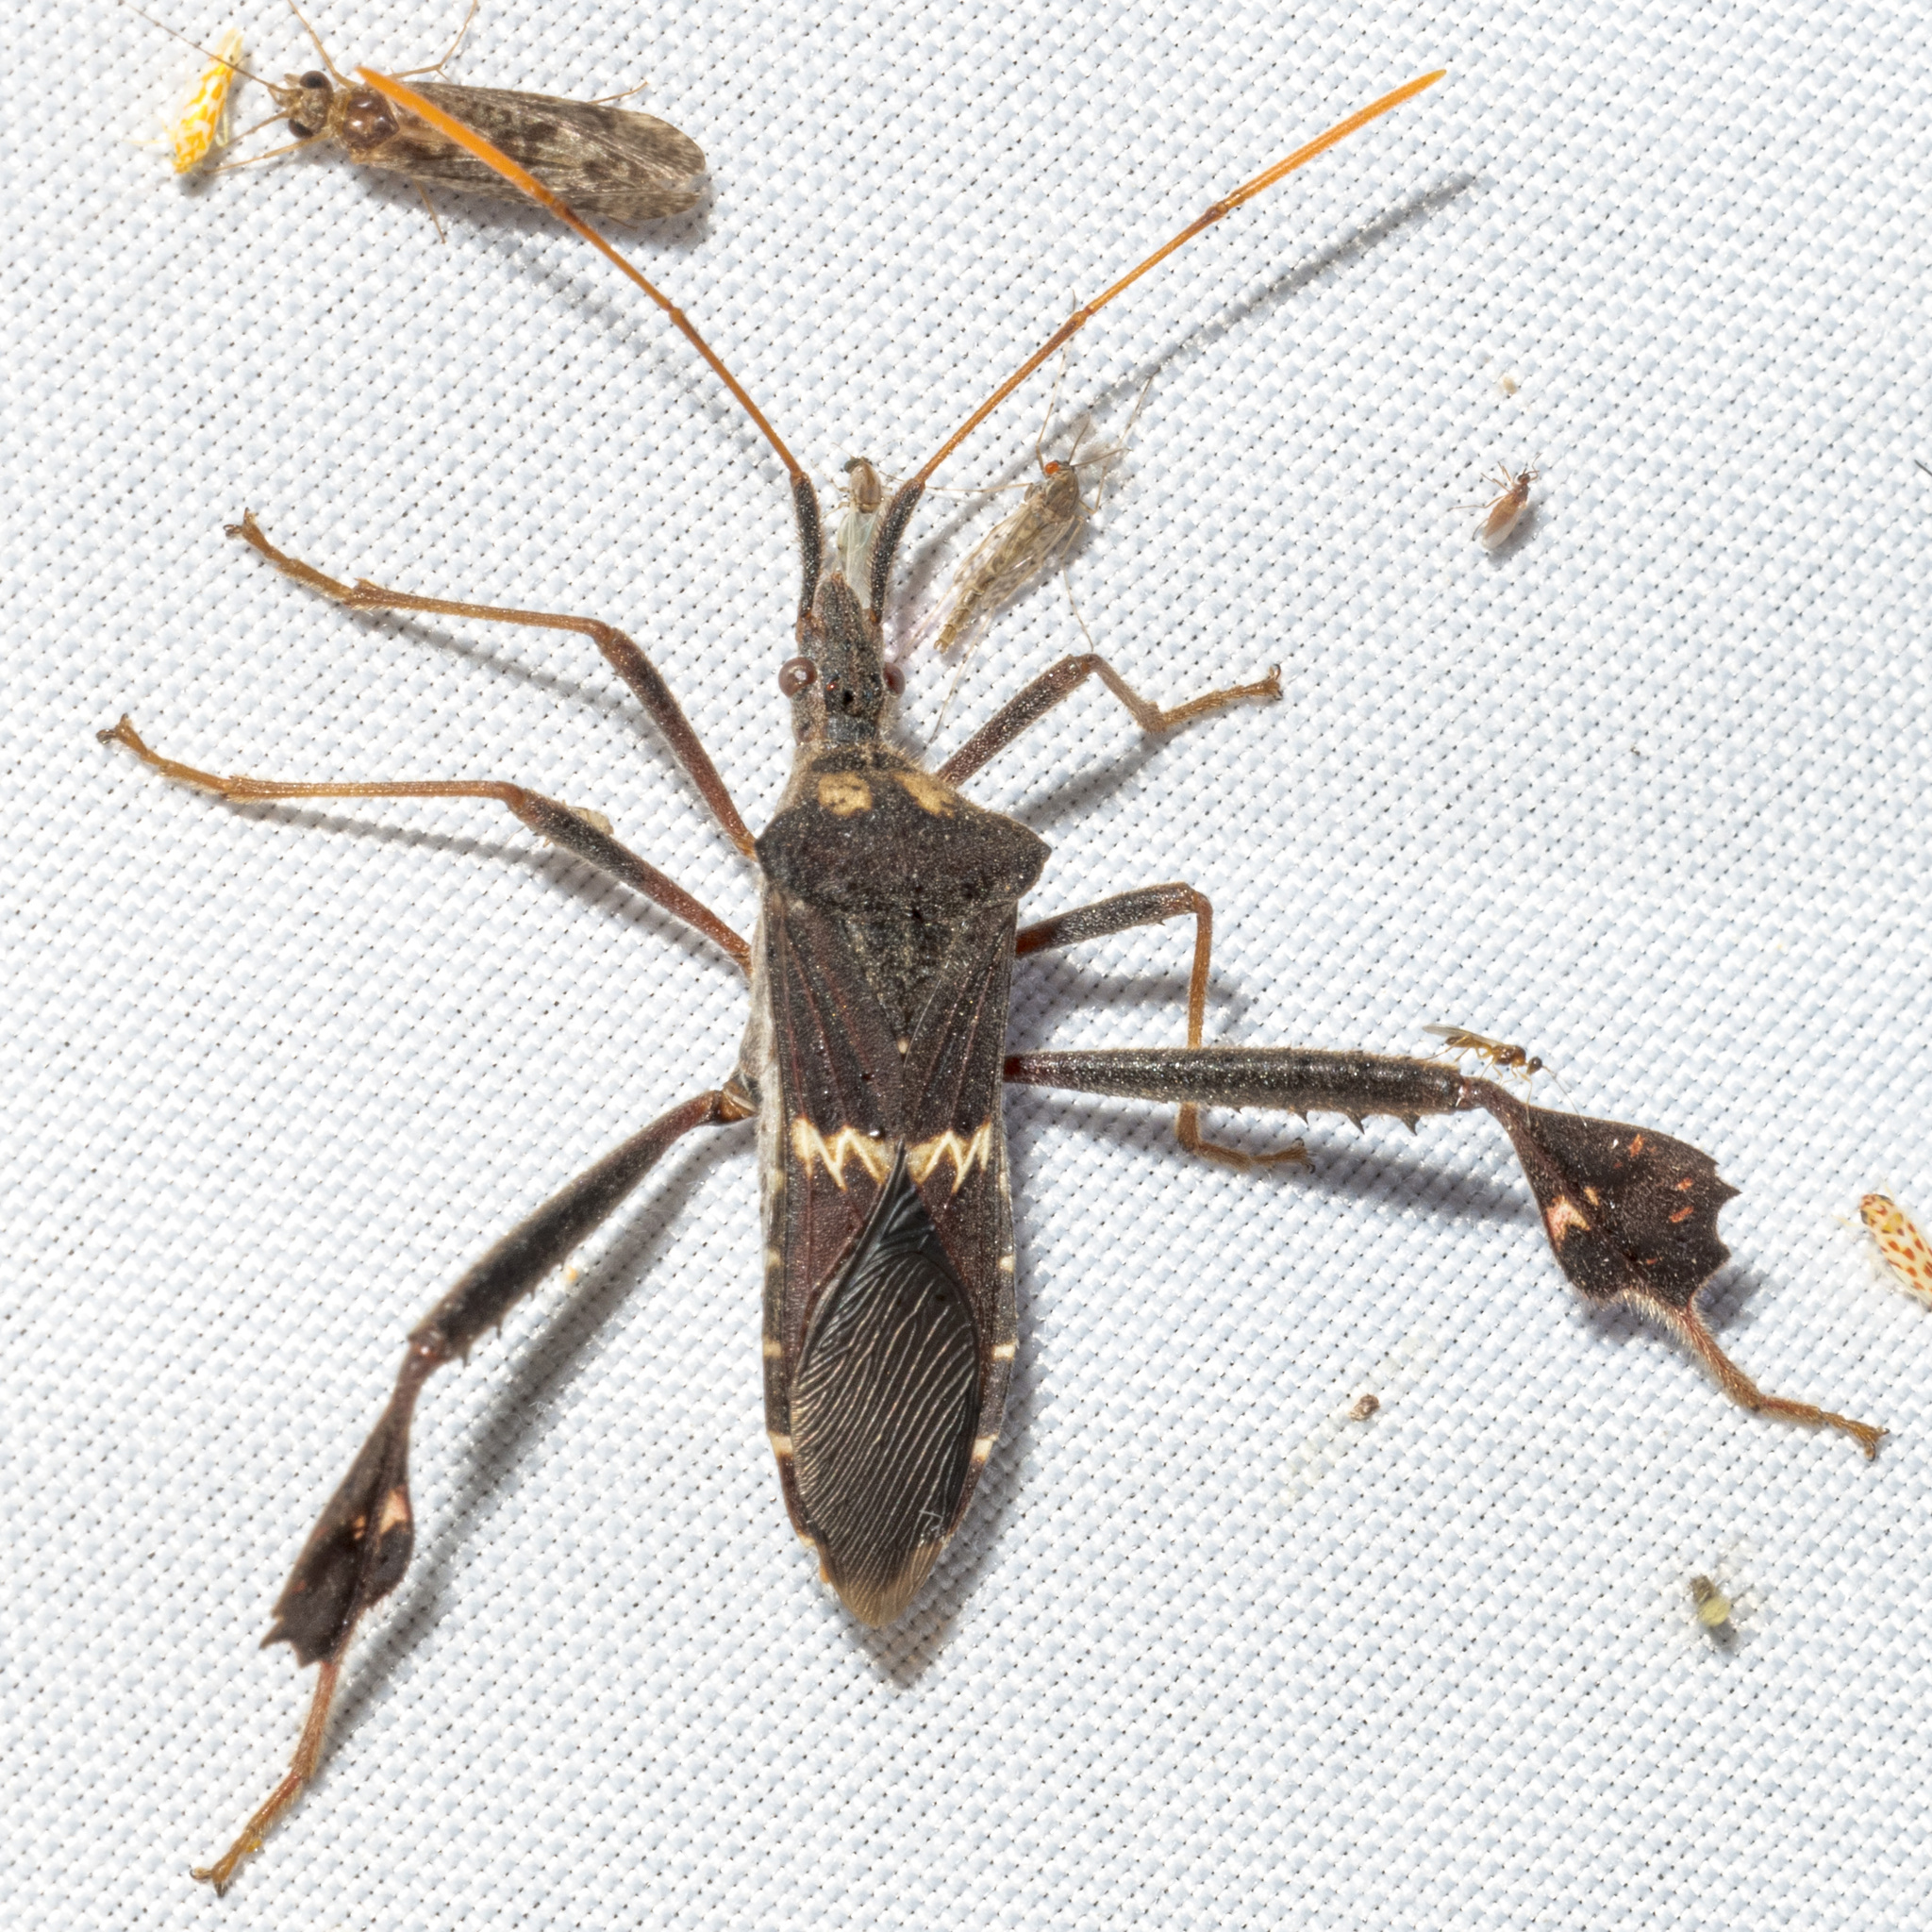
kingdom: Animalia
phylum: Arthropoda
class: Insecta
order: Hemiptera
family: Coreidae
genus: Leptoglossus
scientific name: Leptoglossus zonatus
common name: Large-legged bug
